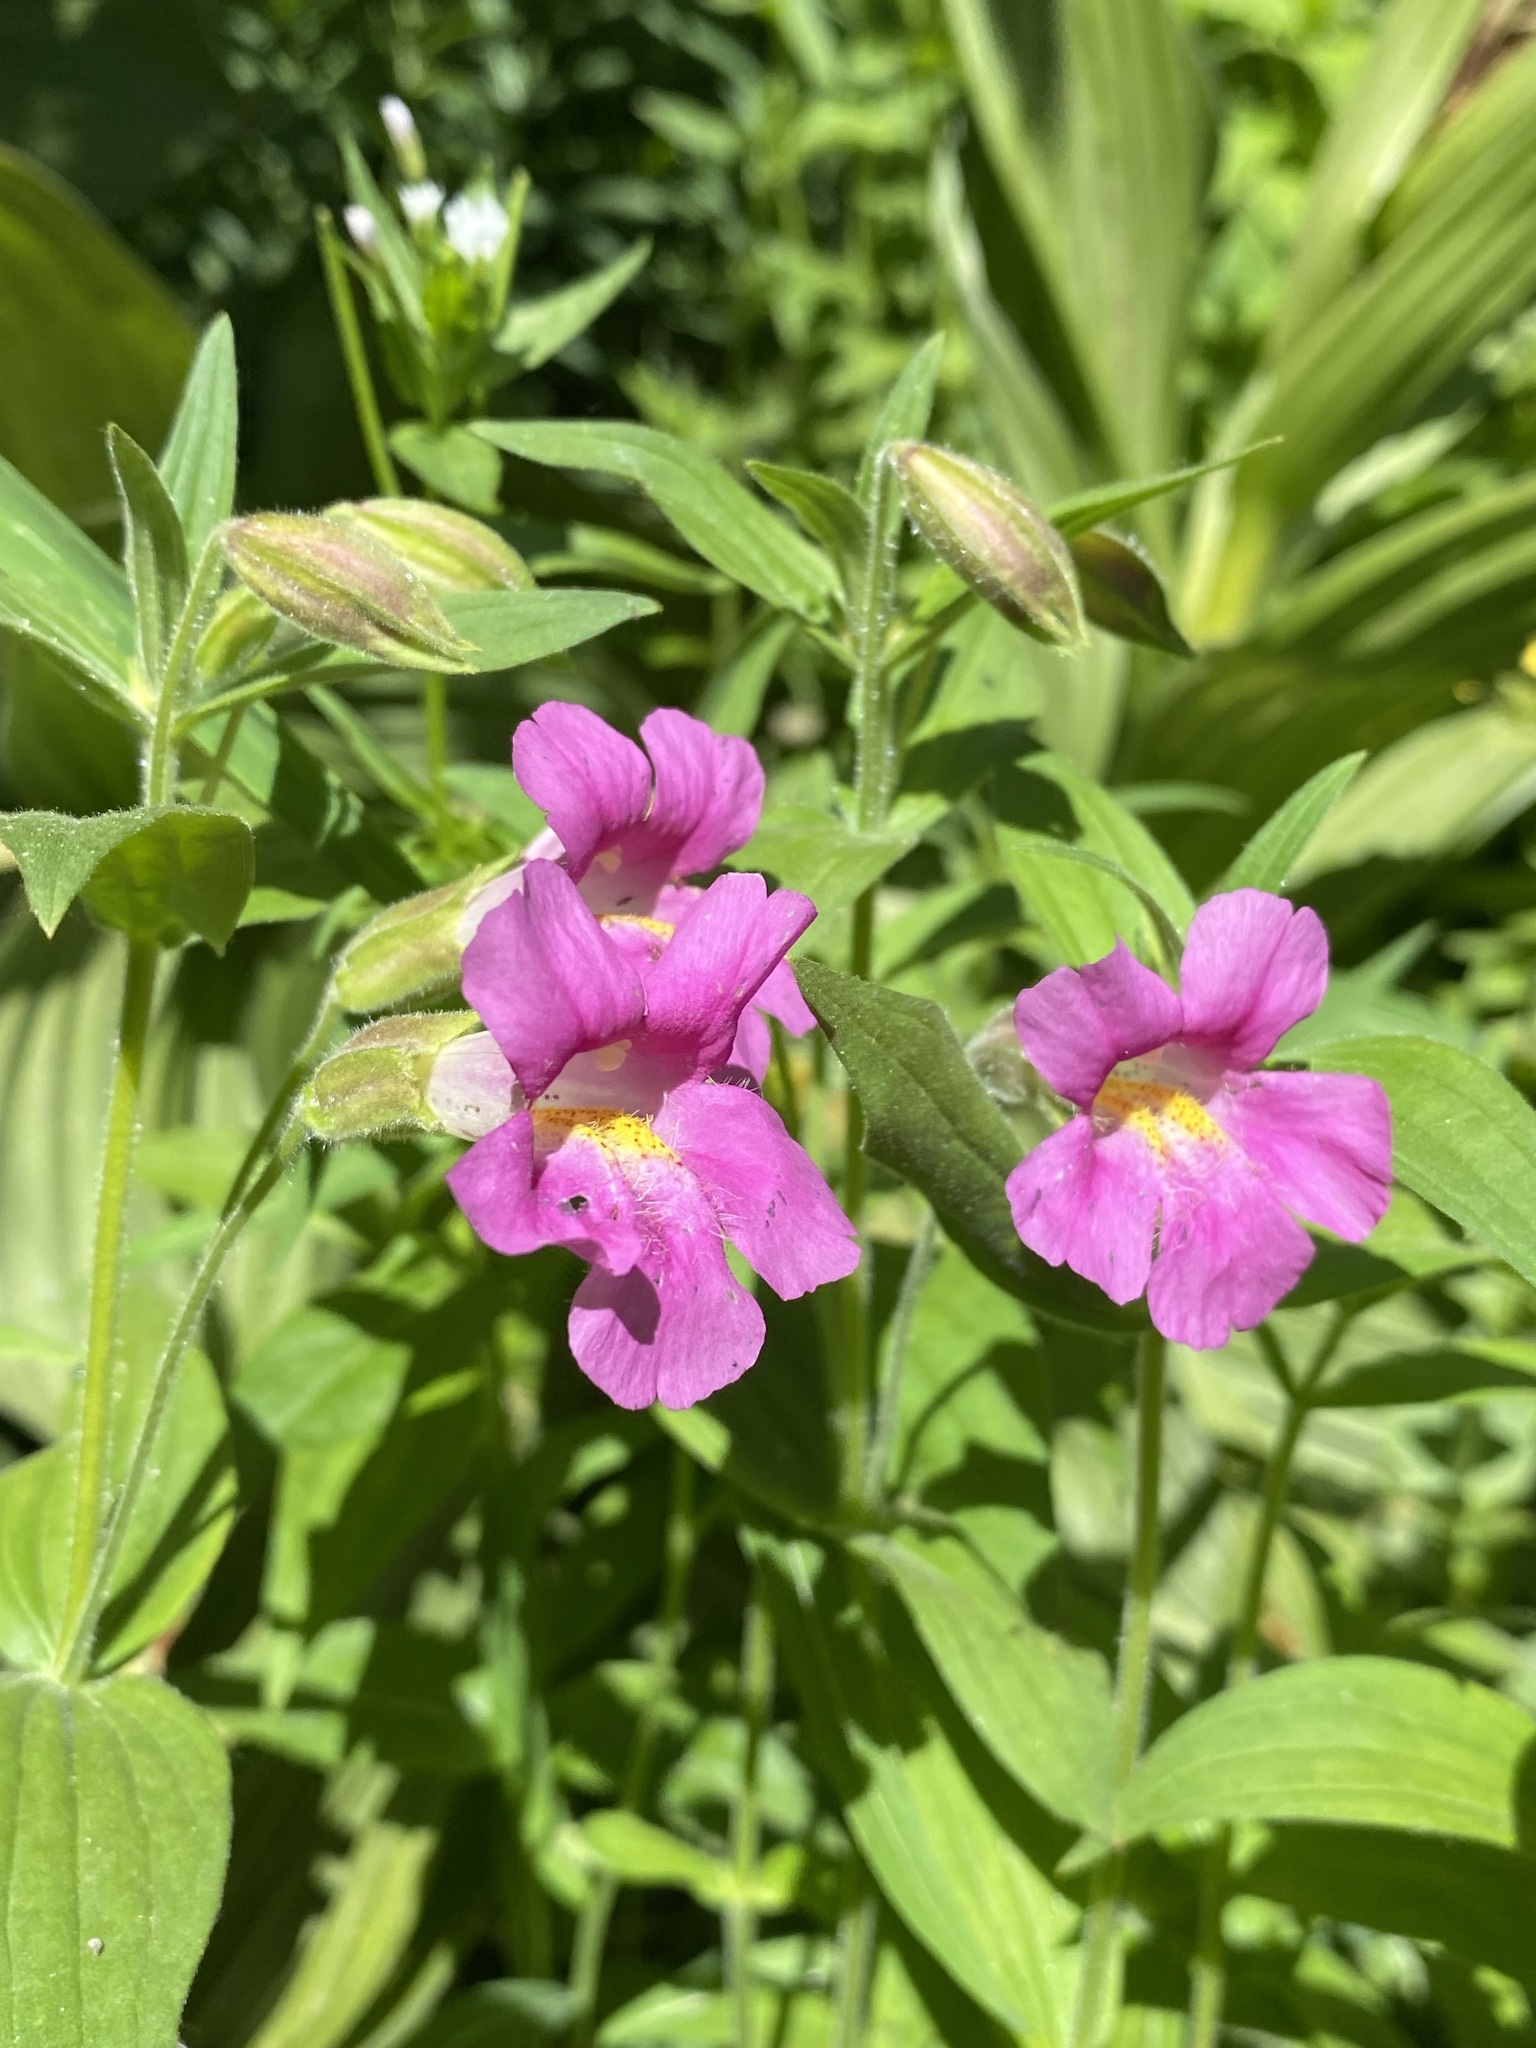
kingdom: Plantae
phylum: Tracheophyta
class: Magnoliopsida
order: Lamiales
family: Phrymaceae
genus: Erythranthe
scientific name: Erythranthe lewisii
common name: Lewis's monkey-flower
